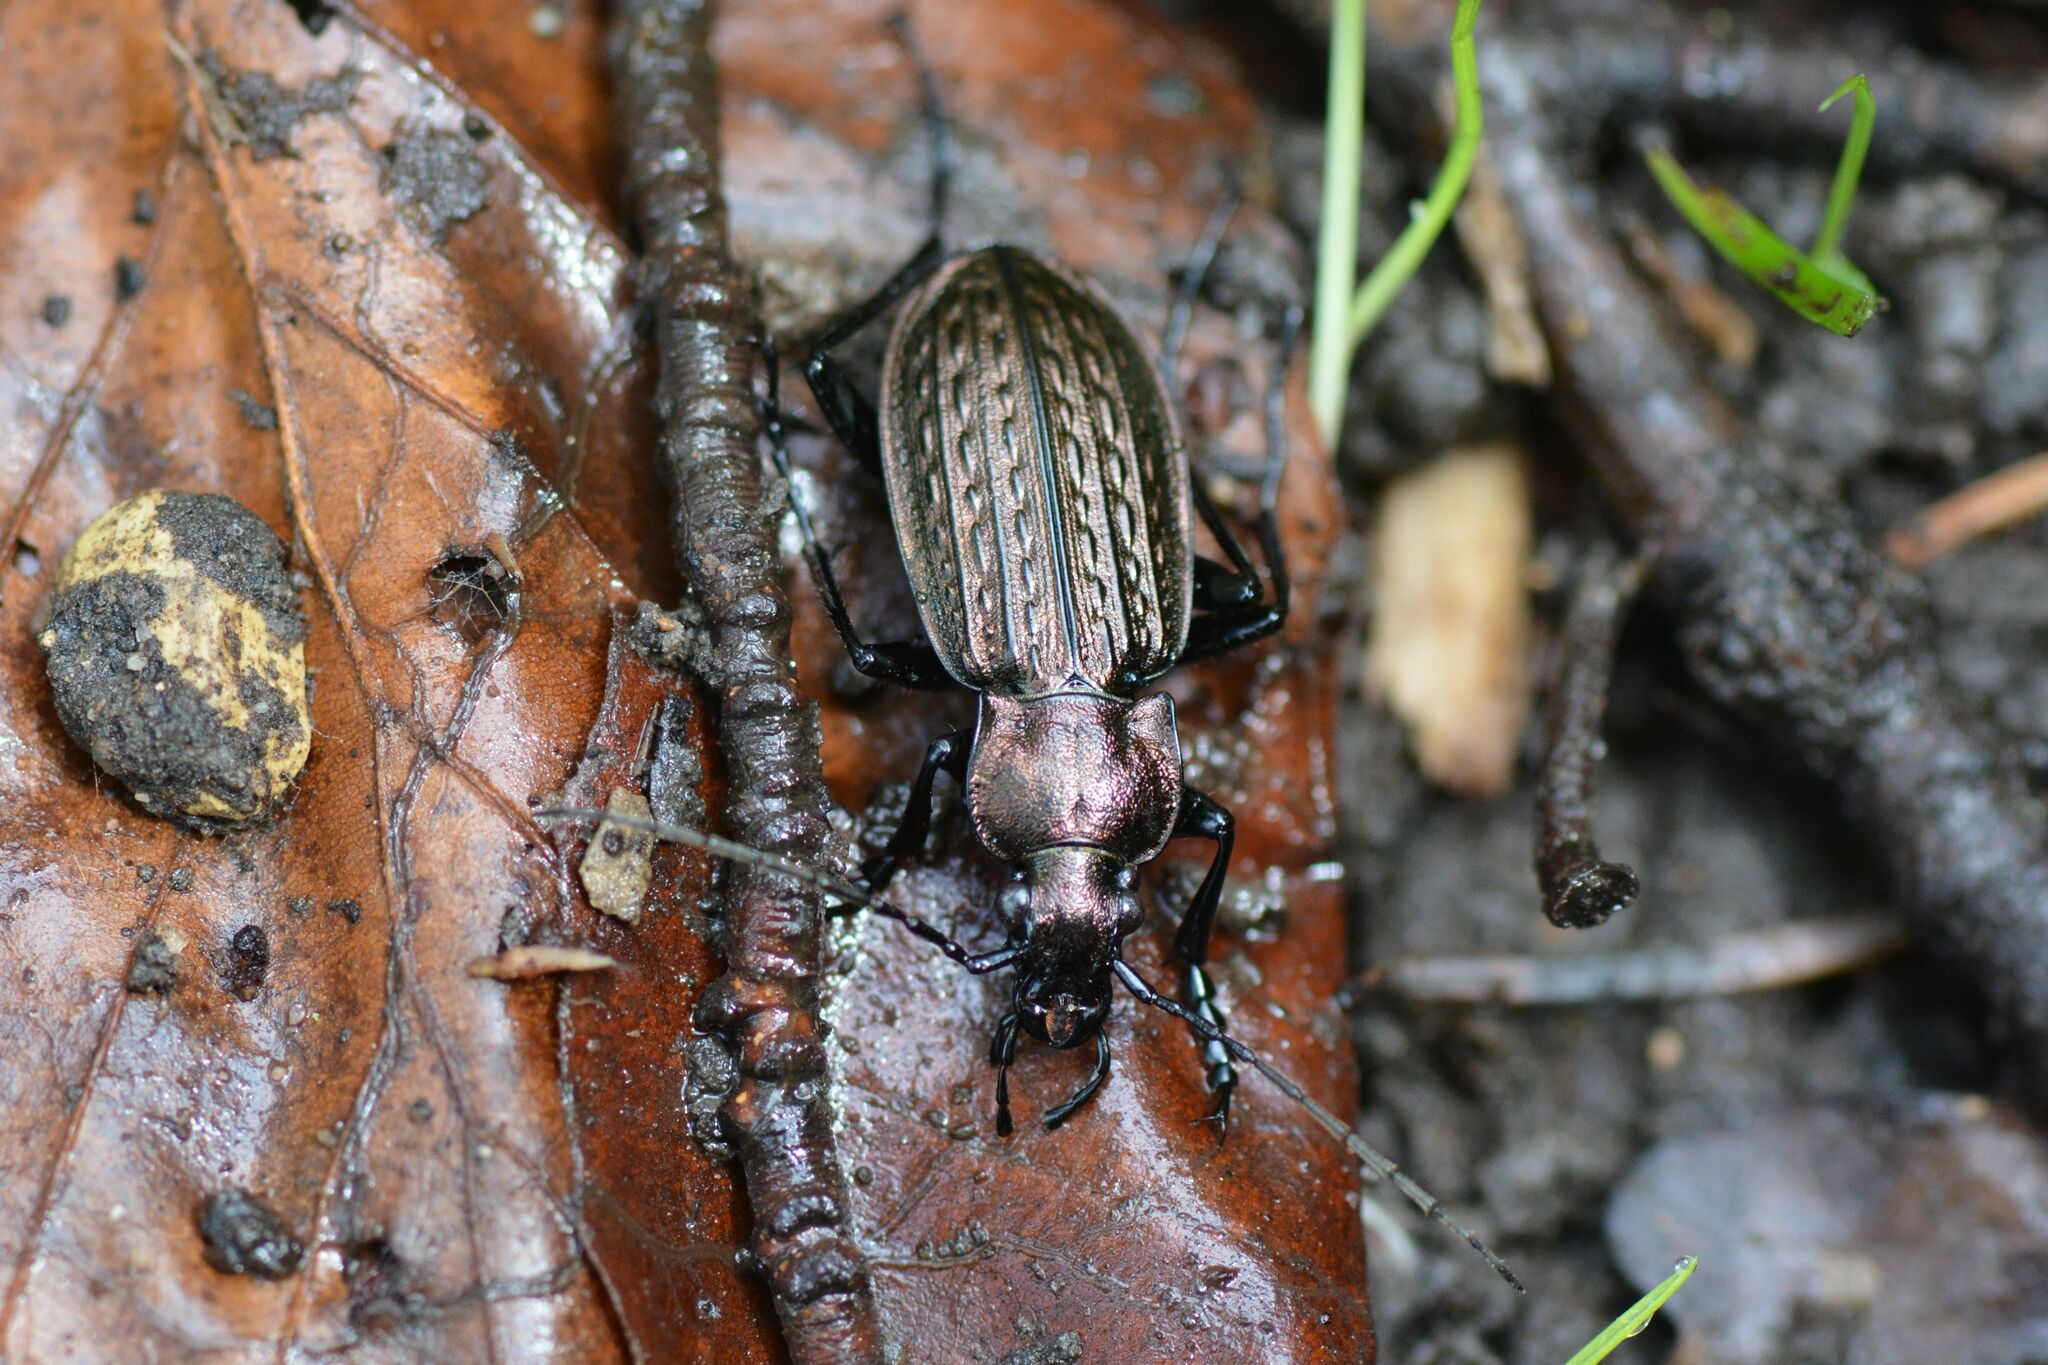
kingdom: Animalia
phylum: Arthropoda
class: Insecta
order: Coleoptera
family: Carabidae
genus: Carabus
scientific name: Carabus granulatus
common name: Granulate ground beetle
